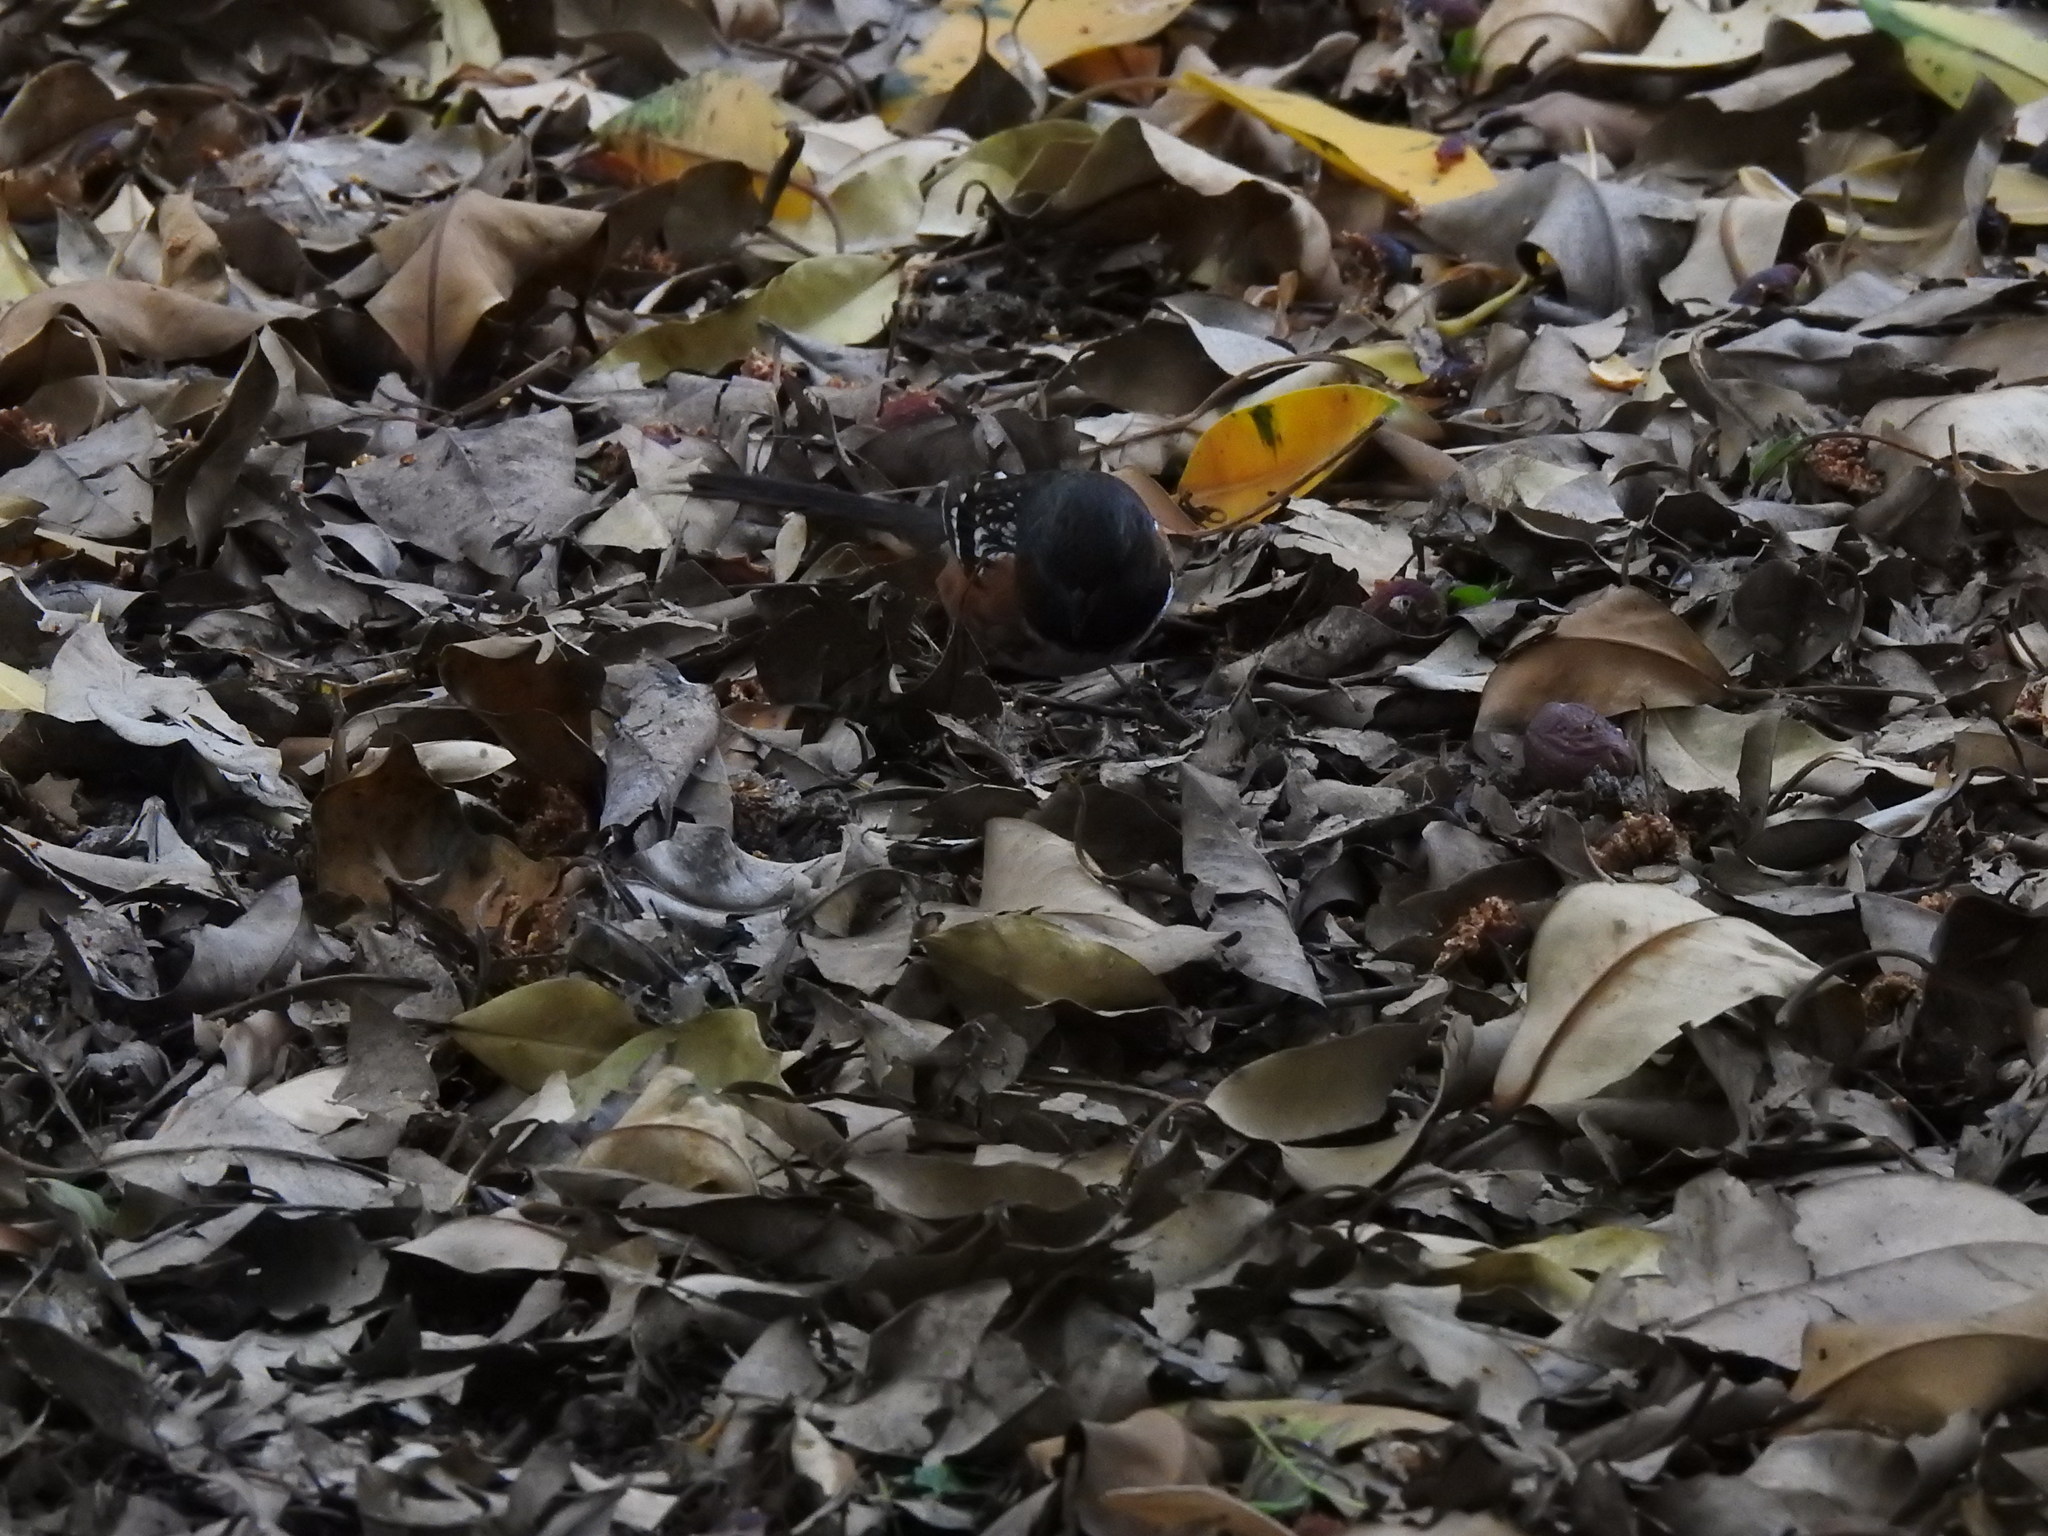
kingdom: Animalia
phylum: Chordata
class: Aves
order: Passeriformes
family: Passerellidae
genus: Pipilo
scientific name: Pipilo maculatus
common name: Spotted towhee
